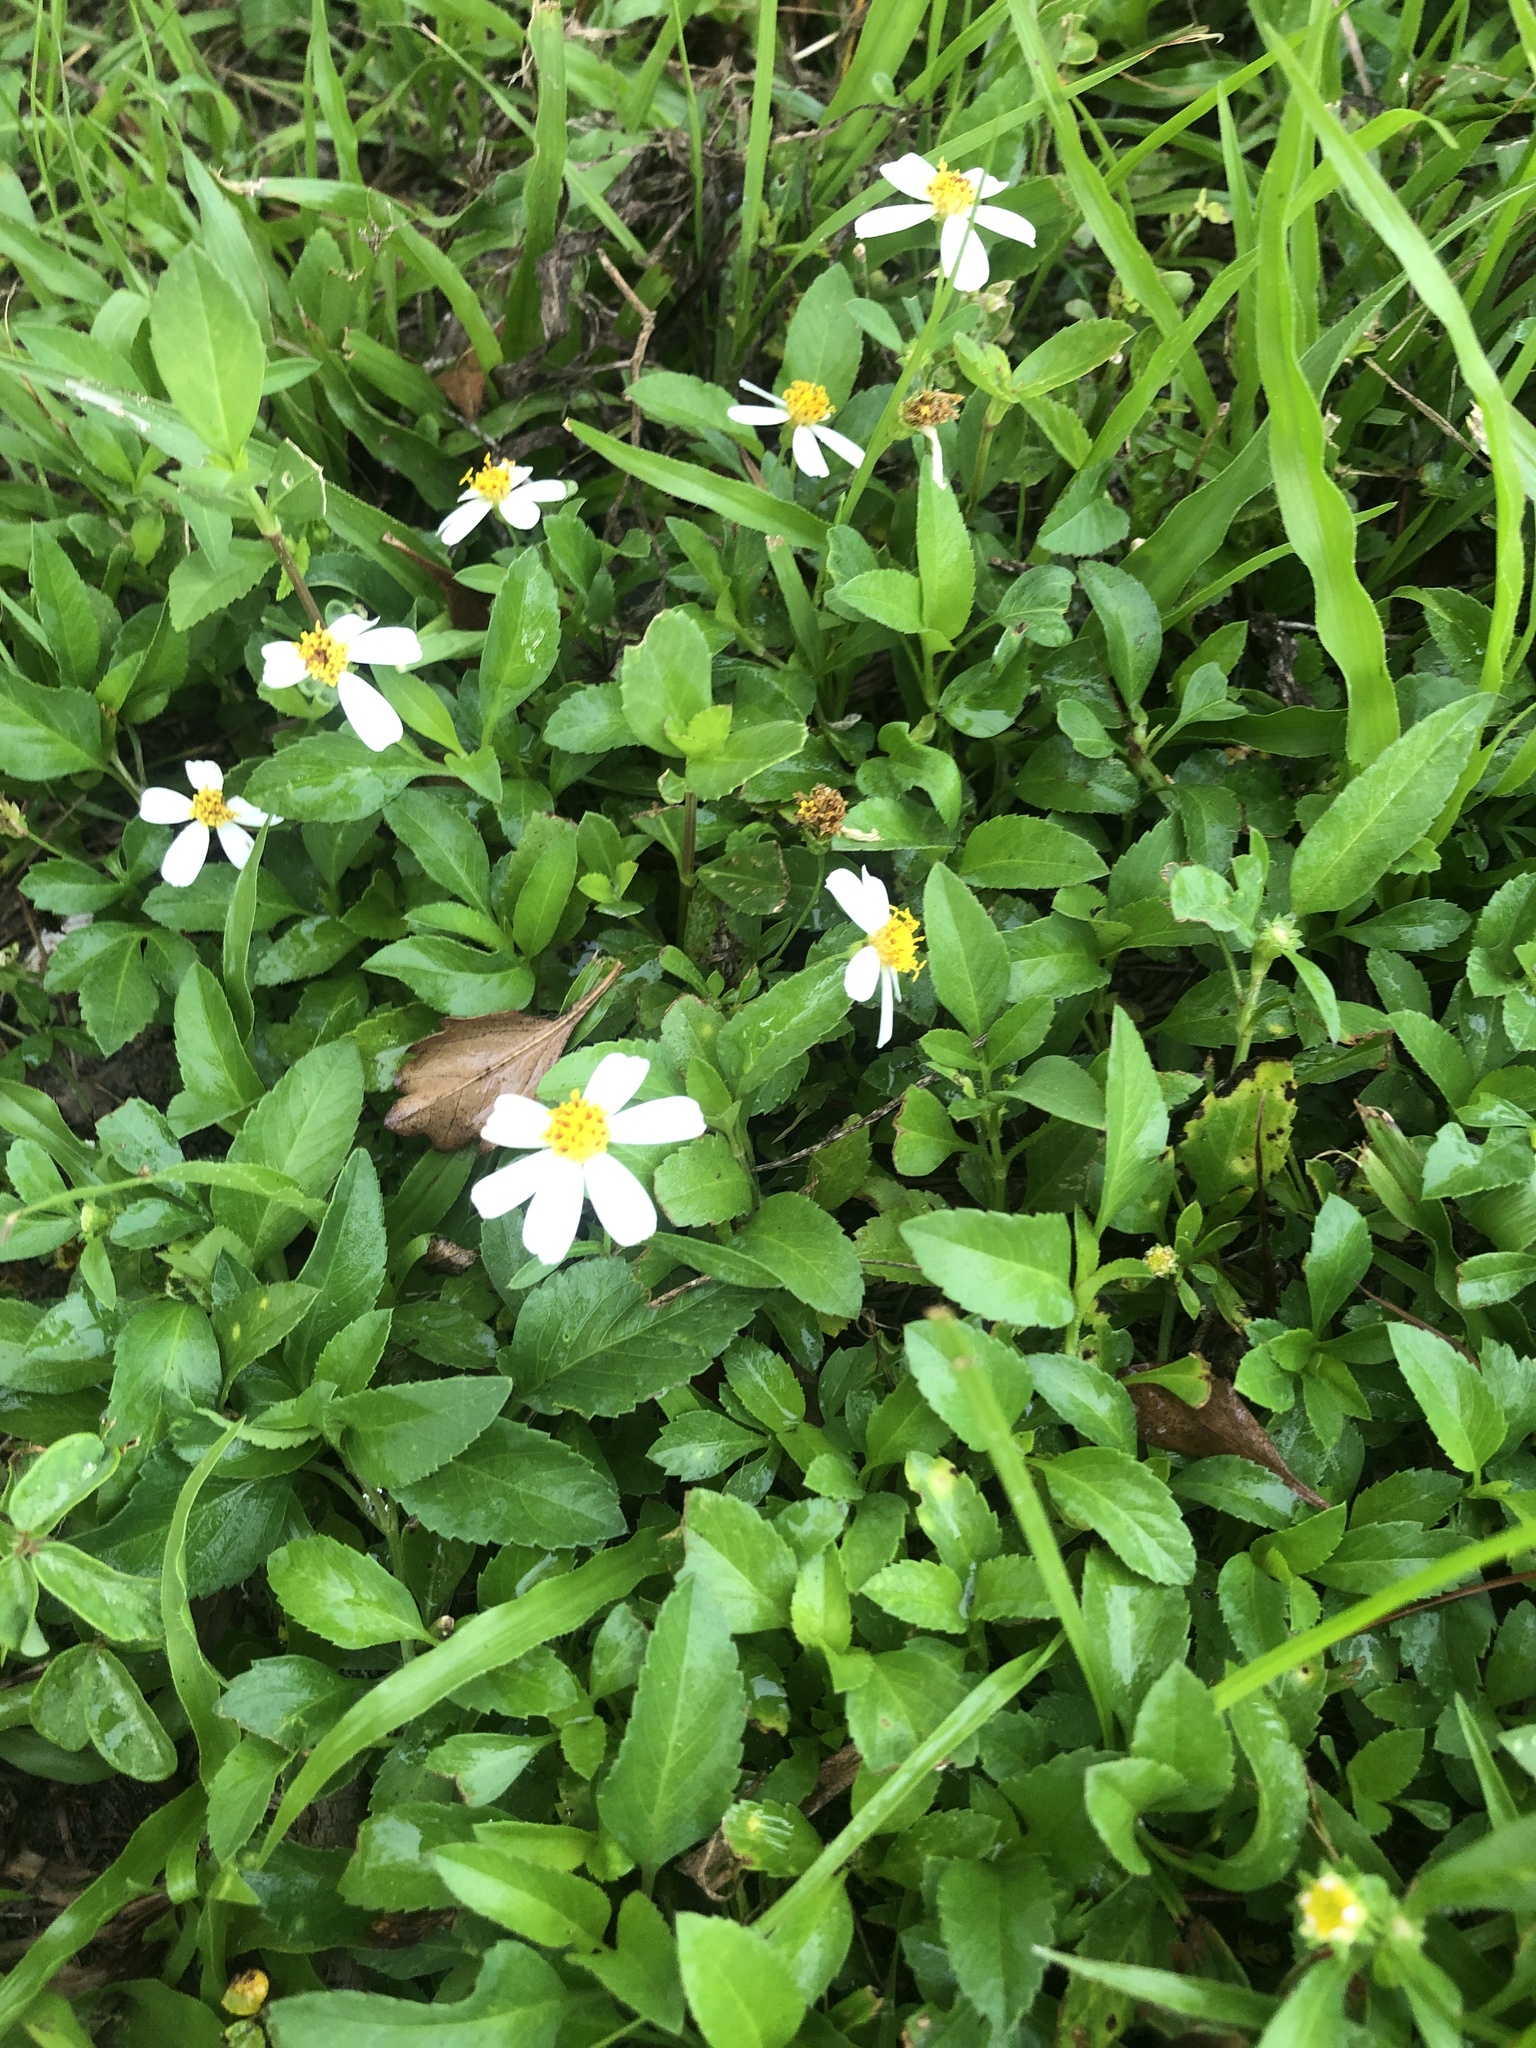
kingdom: Plantae
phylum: Tracheophyta
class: Magnoliopsida
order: Asterales
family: Asteraceae
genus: Bidens
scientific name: Bidens alba
